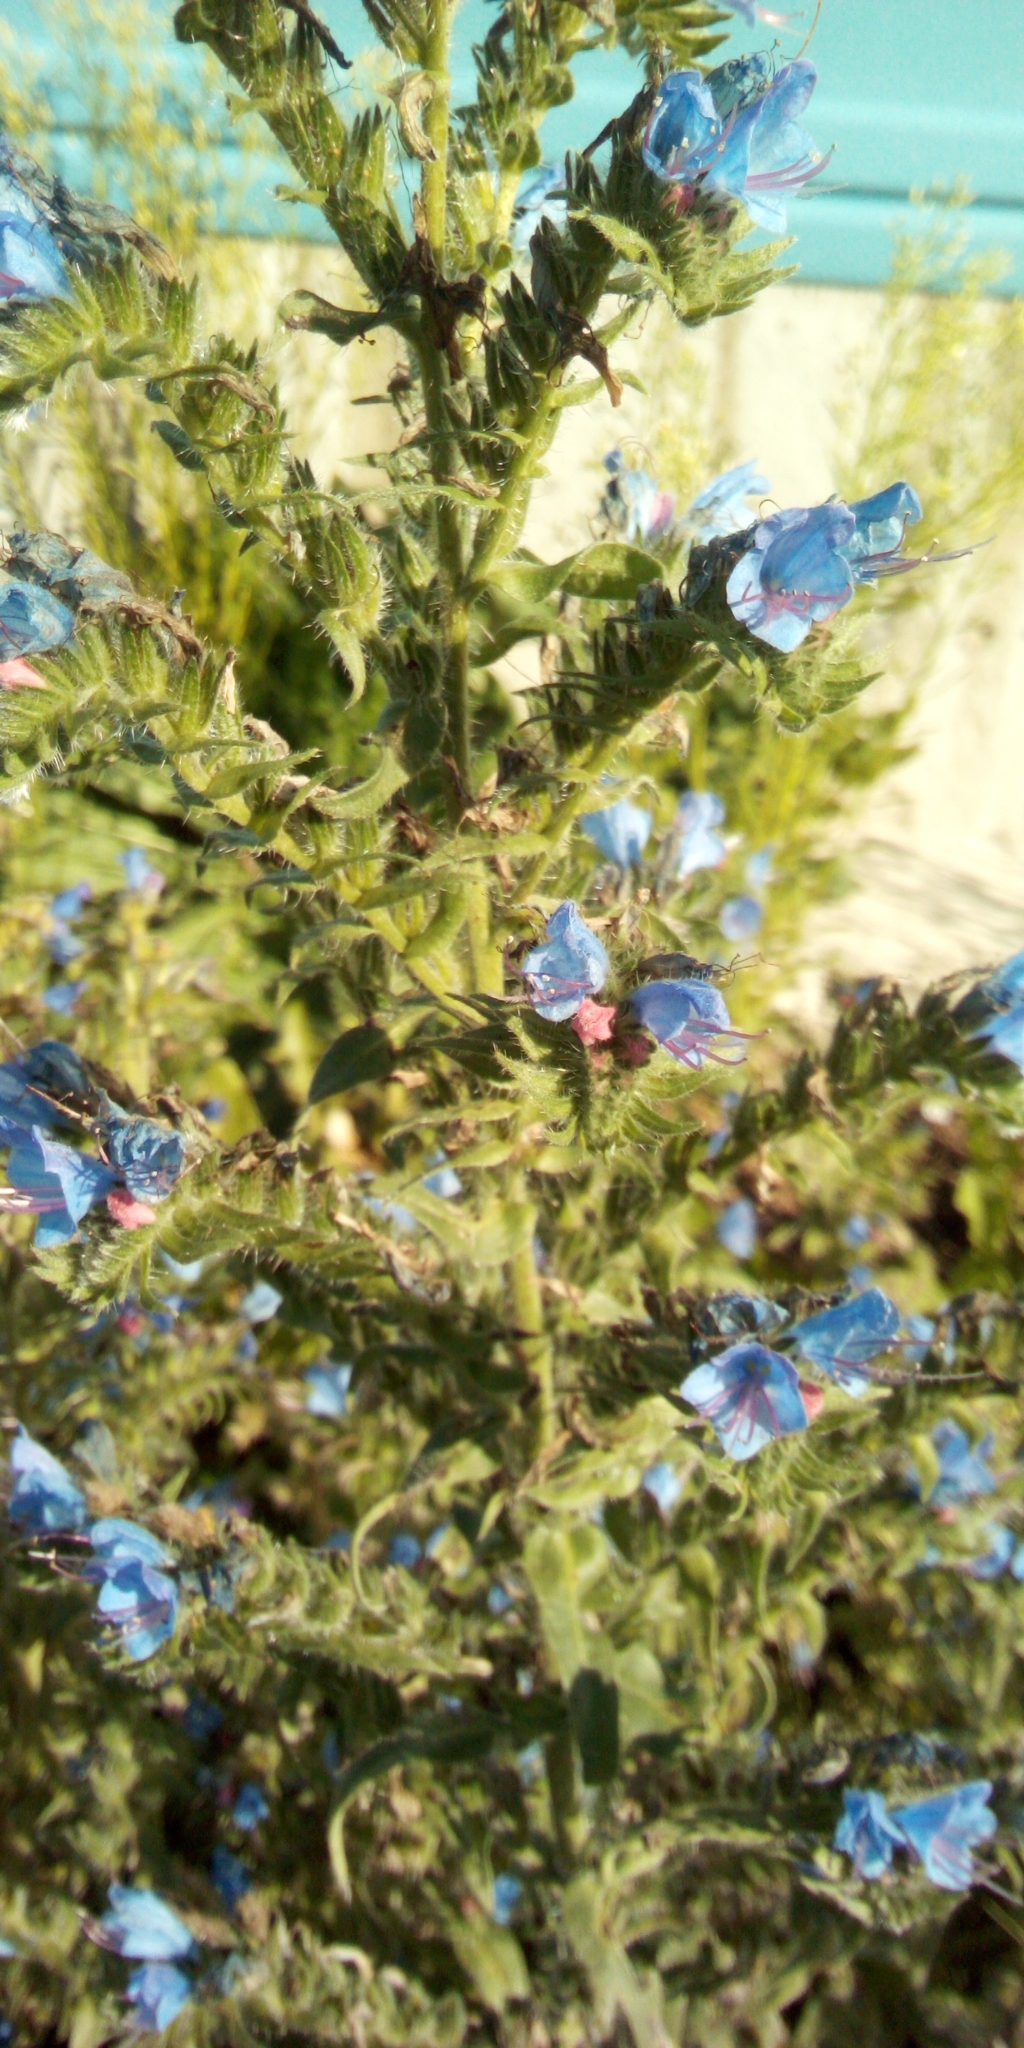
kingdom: Plantae
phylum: Tracheophyta
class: Magnoliopsida
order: Boraginales
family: Boraginaceae
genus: Echium
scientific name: Echium vulgare
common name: Common viper's bugloss
